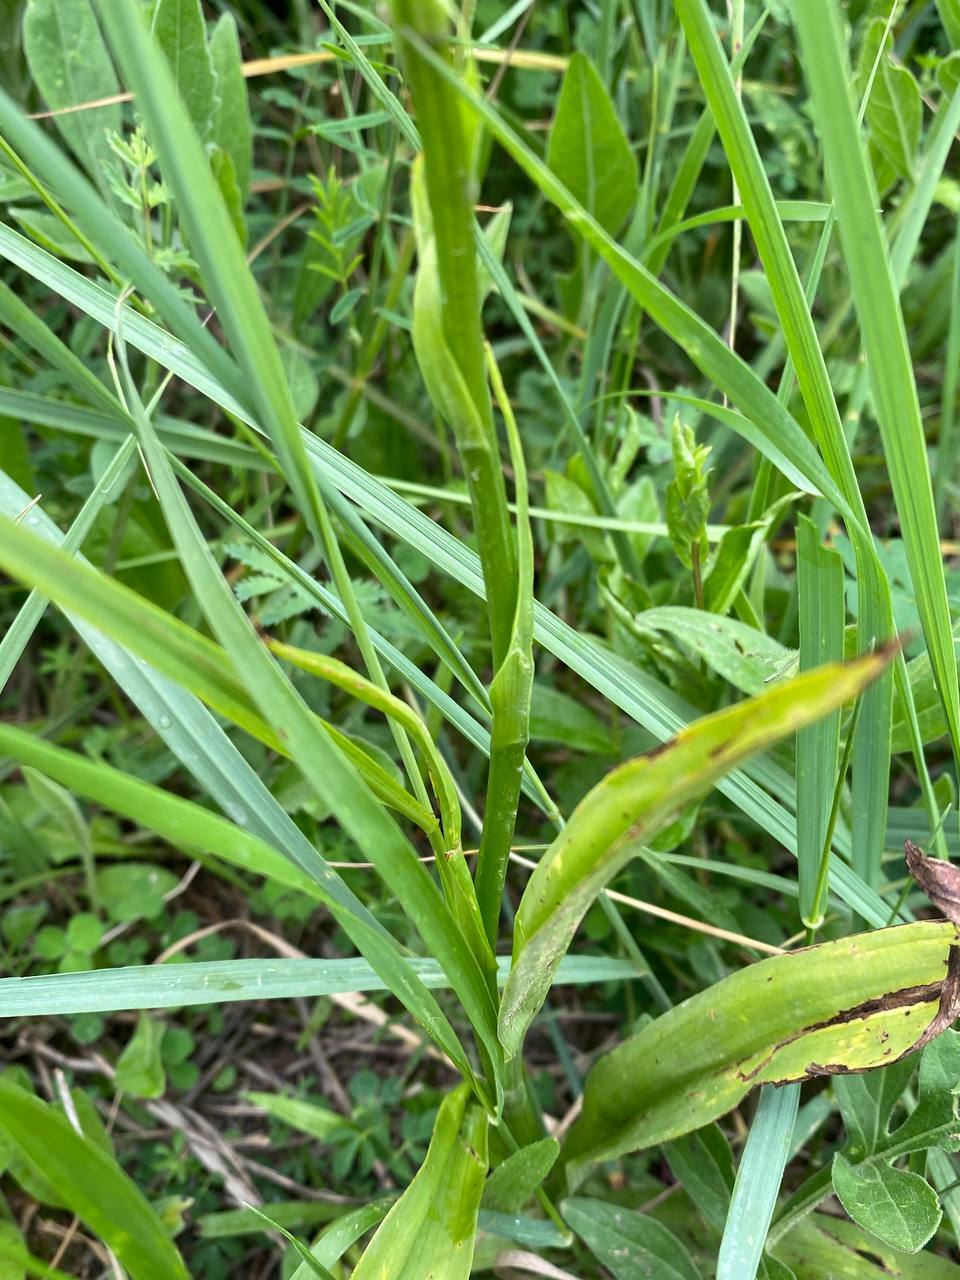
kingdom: Plantae
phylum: Tracheophyta
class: Liliopsida
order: Asparagales
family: Orchidaceae
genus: Gymnadenia
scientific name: Gymnadenia conopsea
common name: Fragrant orchid
